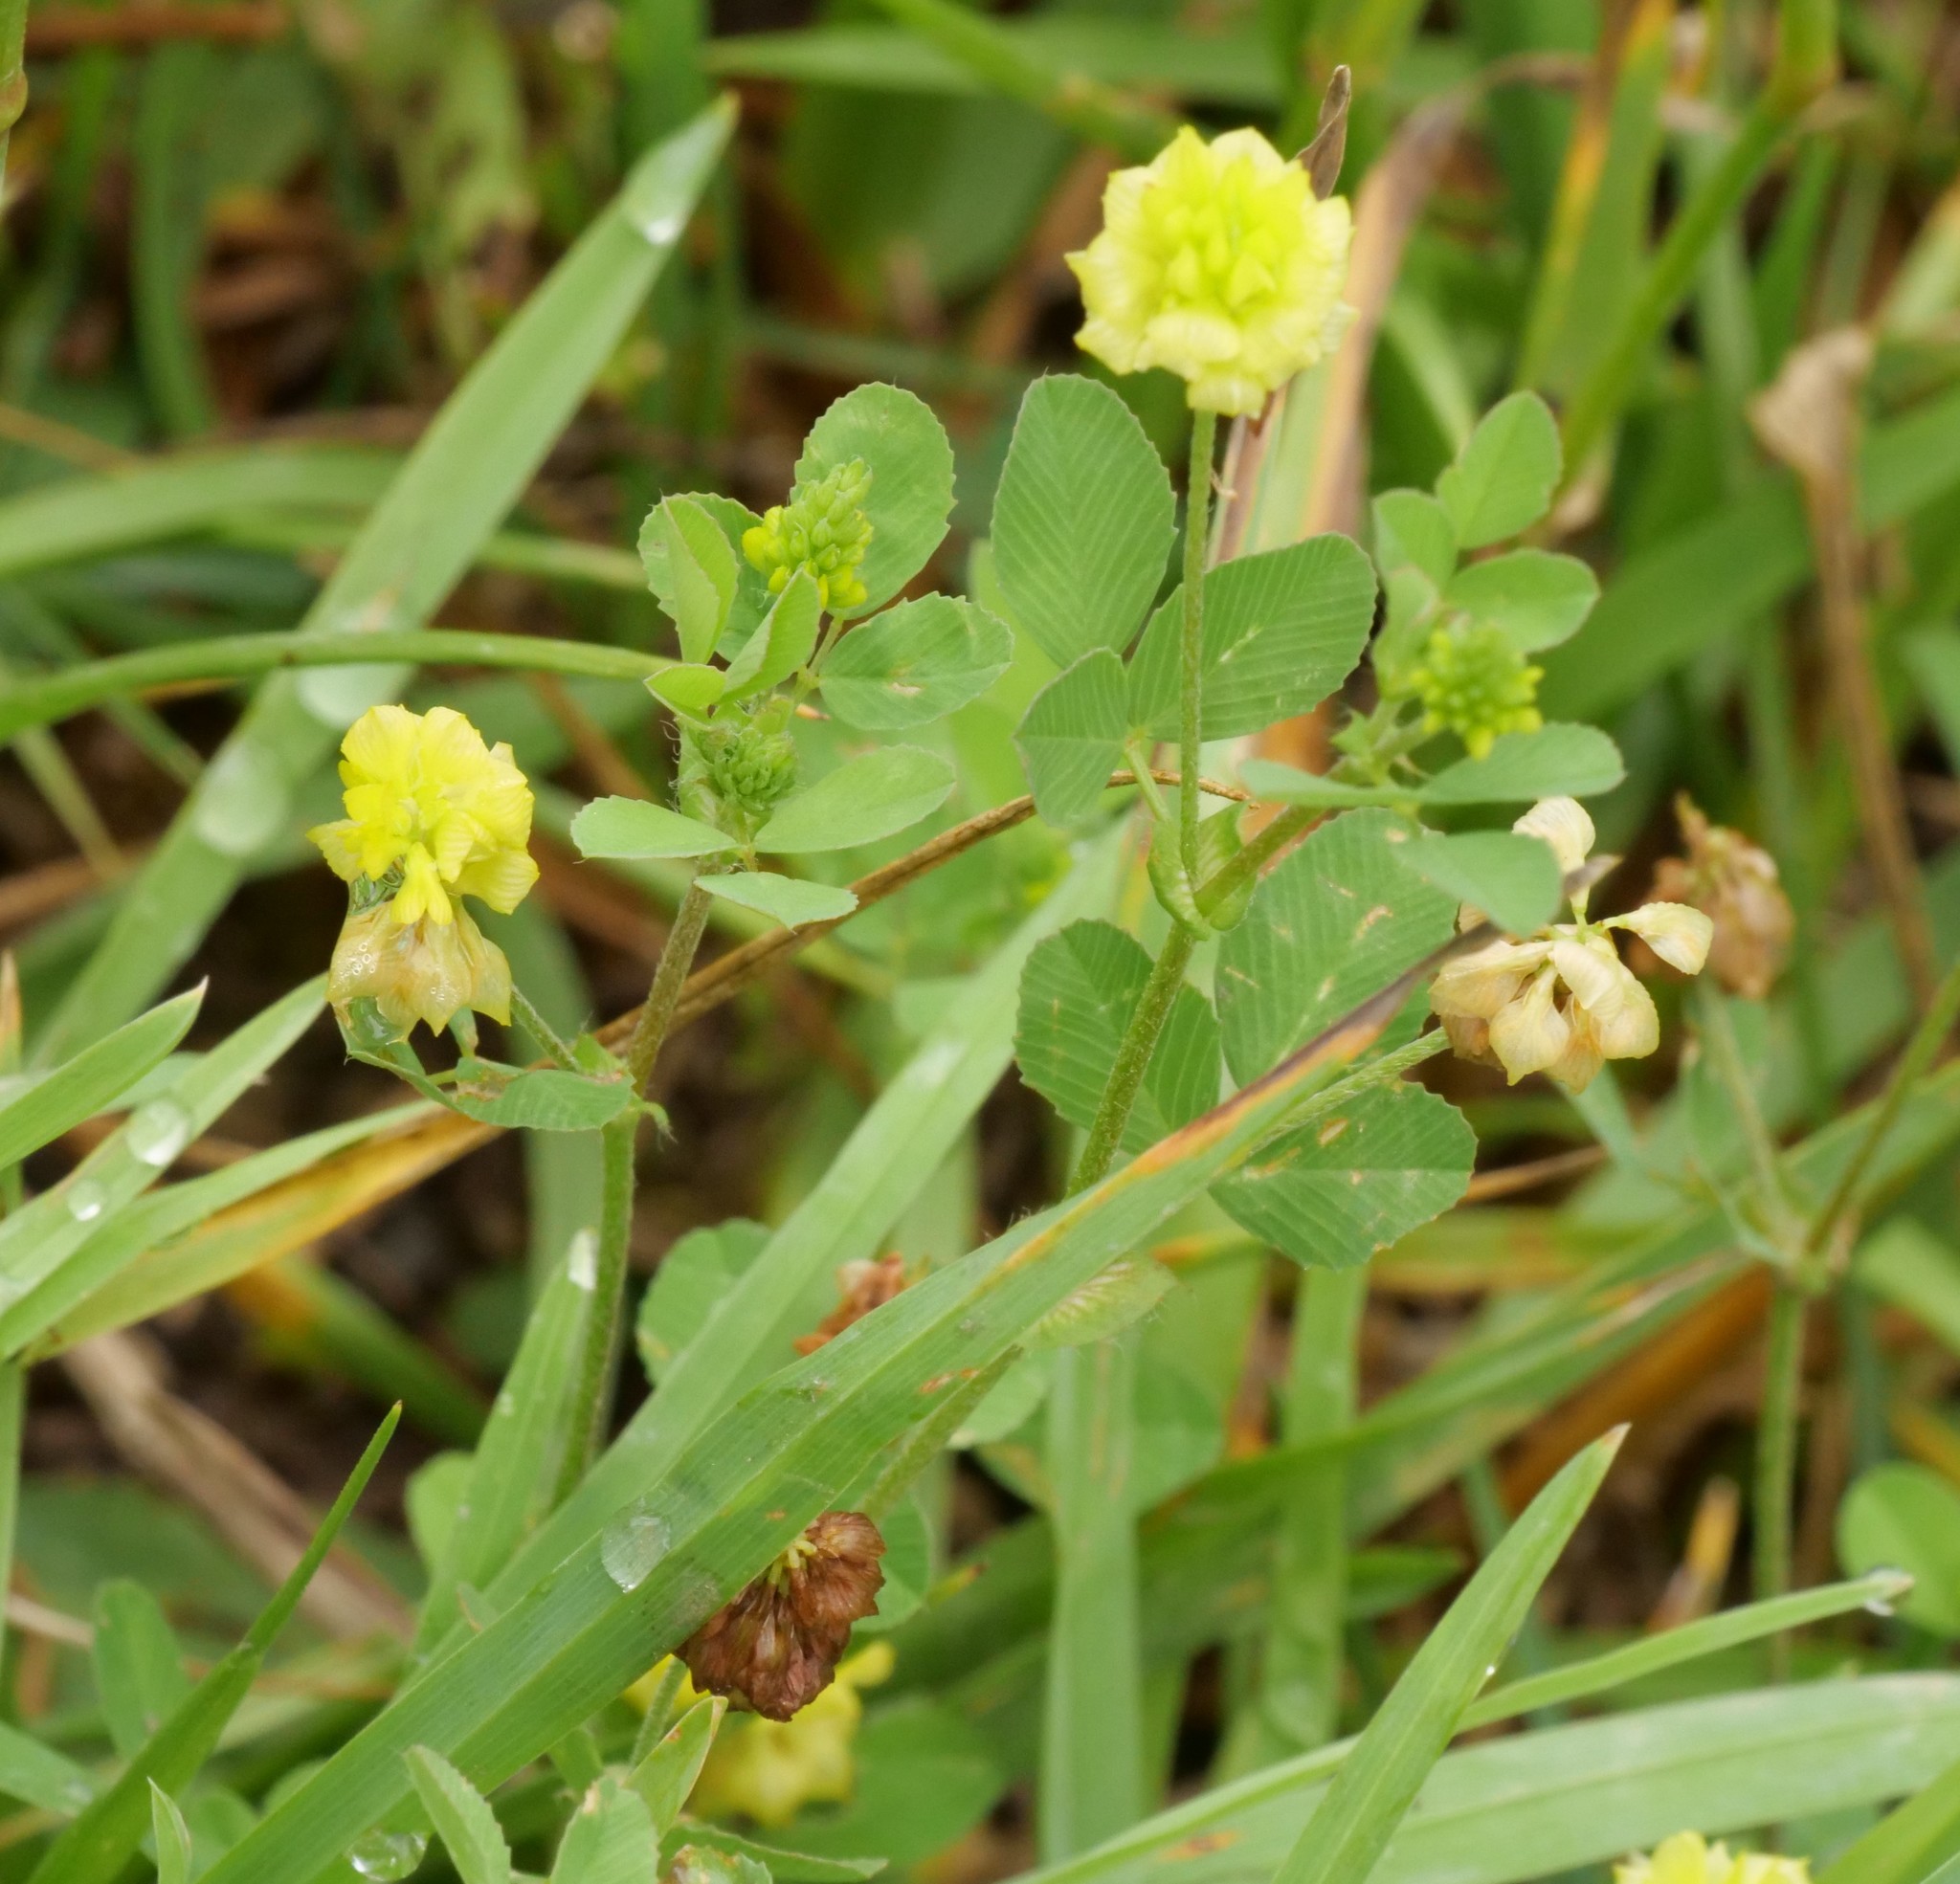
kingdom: Plantae
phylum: Tracheophyta
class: Magnoliopsida
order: Fabales
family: Fabaceae
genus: Trifolium
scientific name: Trifolium campestre
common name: Field clover
